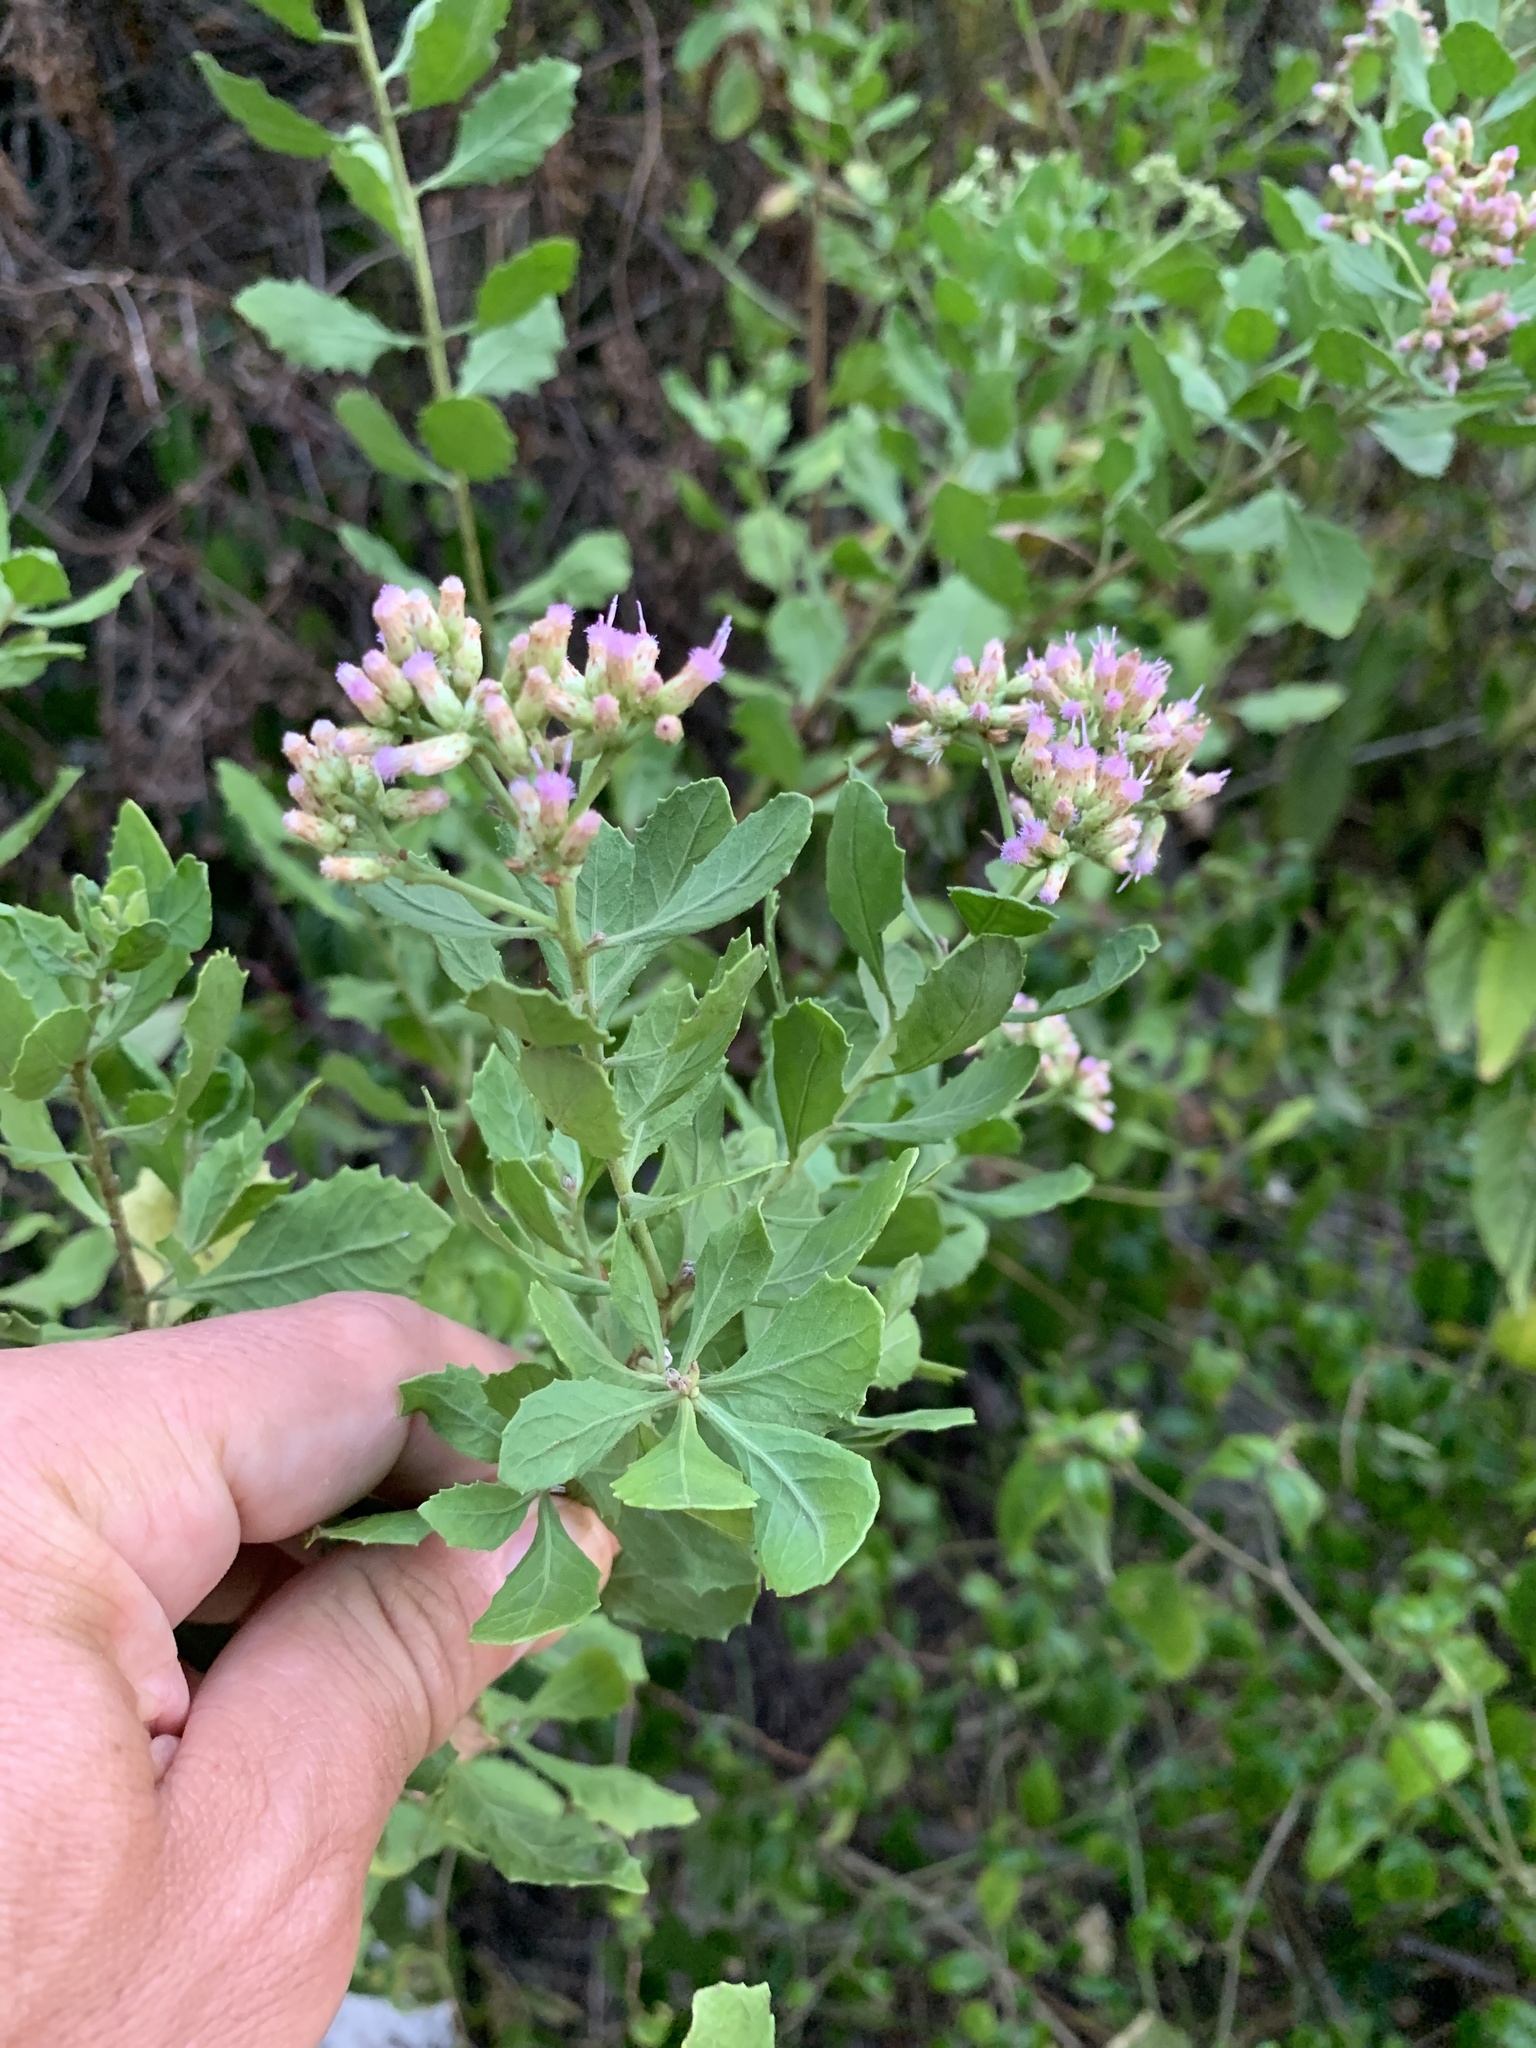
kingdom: Plantae
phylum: Tracheophyta
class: Magnoliopsida
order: Asterales
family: Asteraceae
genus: Pluchea
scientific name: Pluchea indica
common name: Indian fleabane
